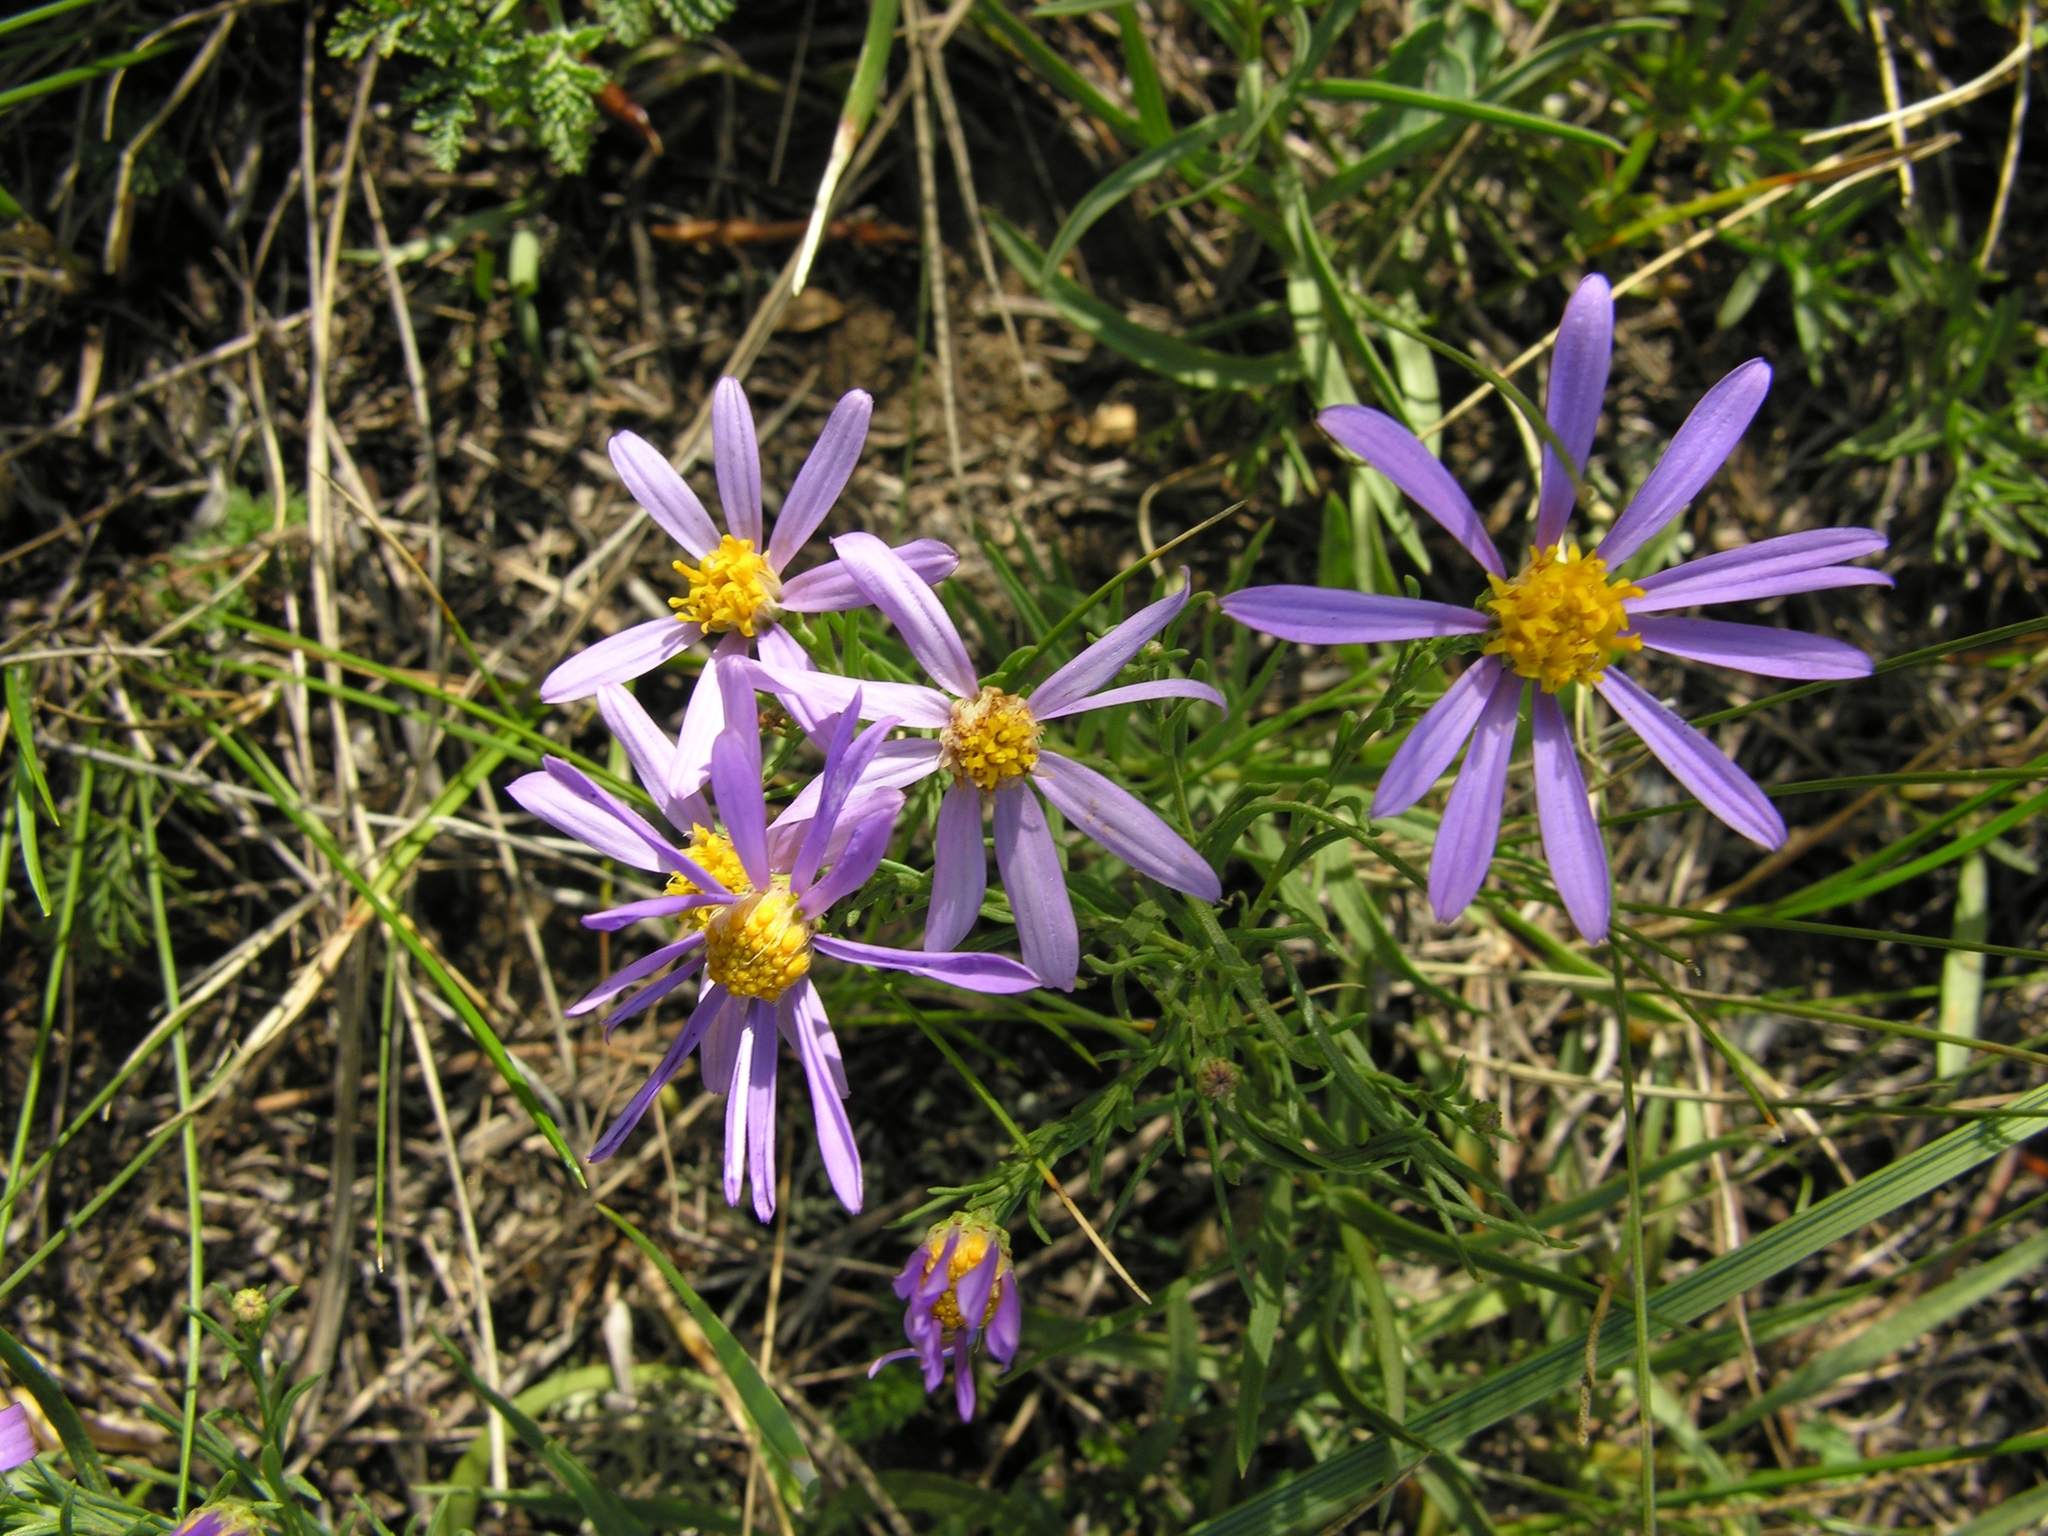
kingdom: Plantae
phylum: Tracheophyta
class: Magnoliopsida
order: Asterales
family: Asteraceae
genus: Galatella
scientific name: Galatella angustissima
